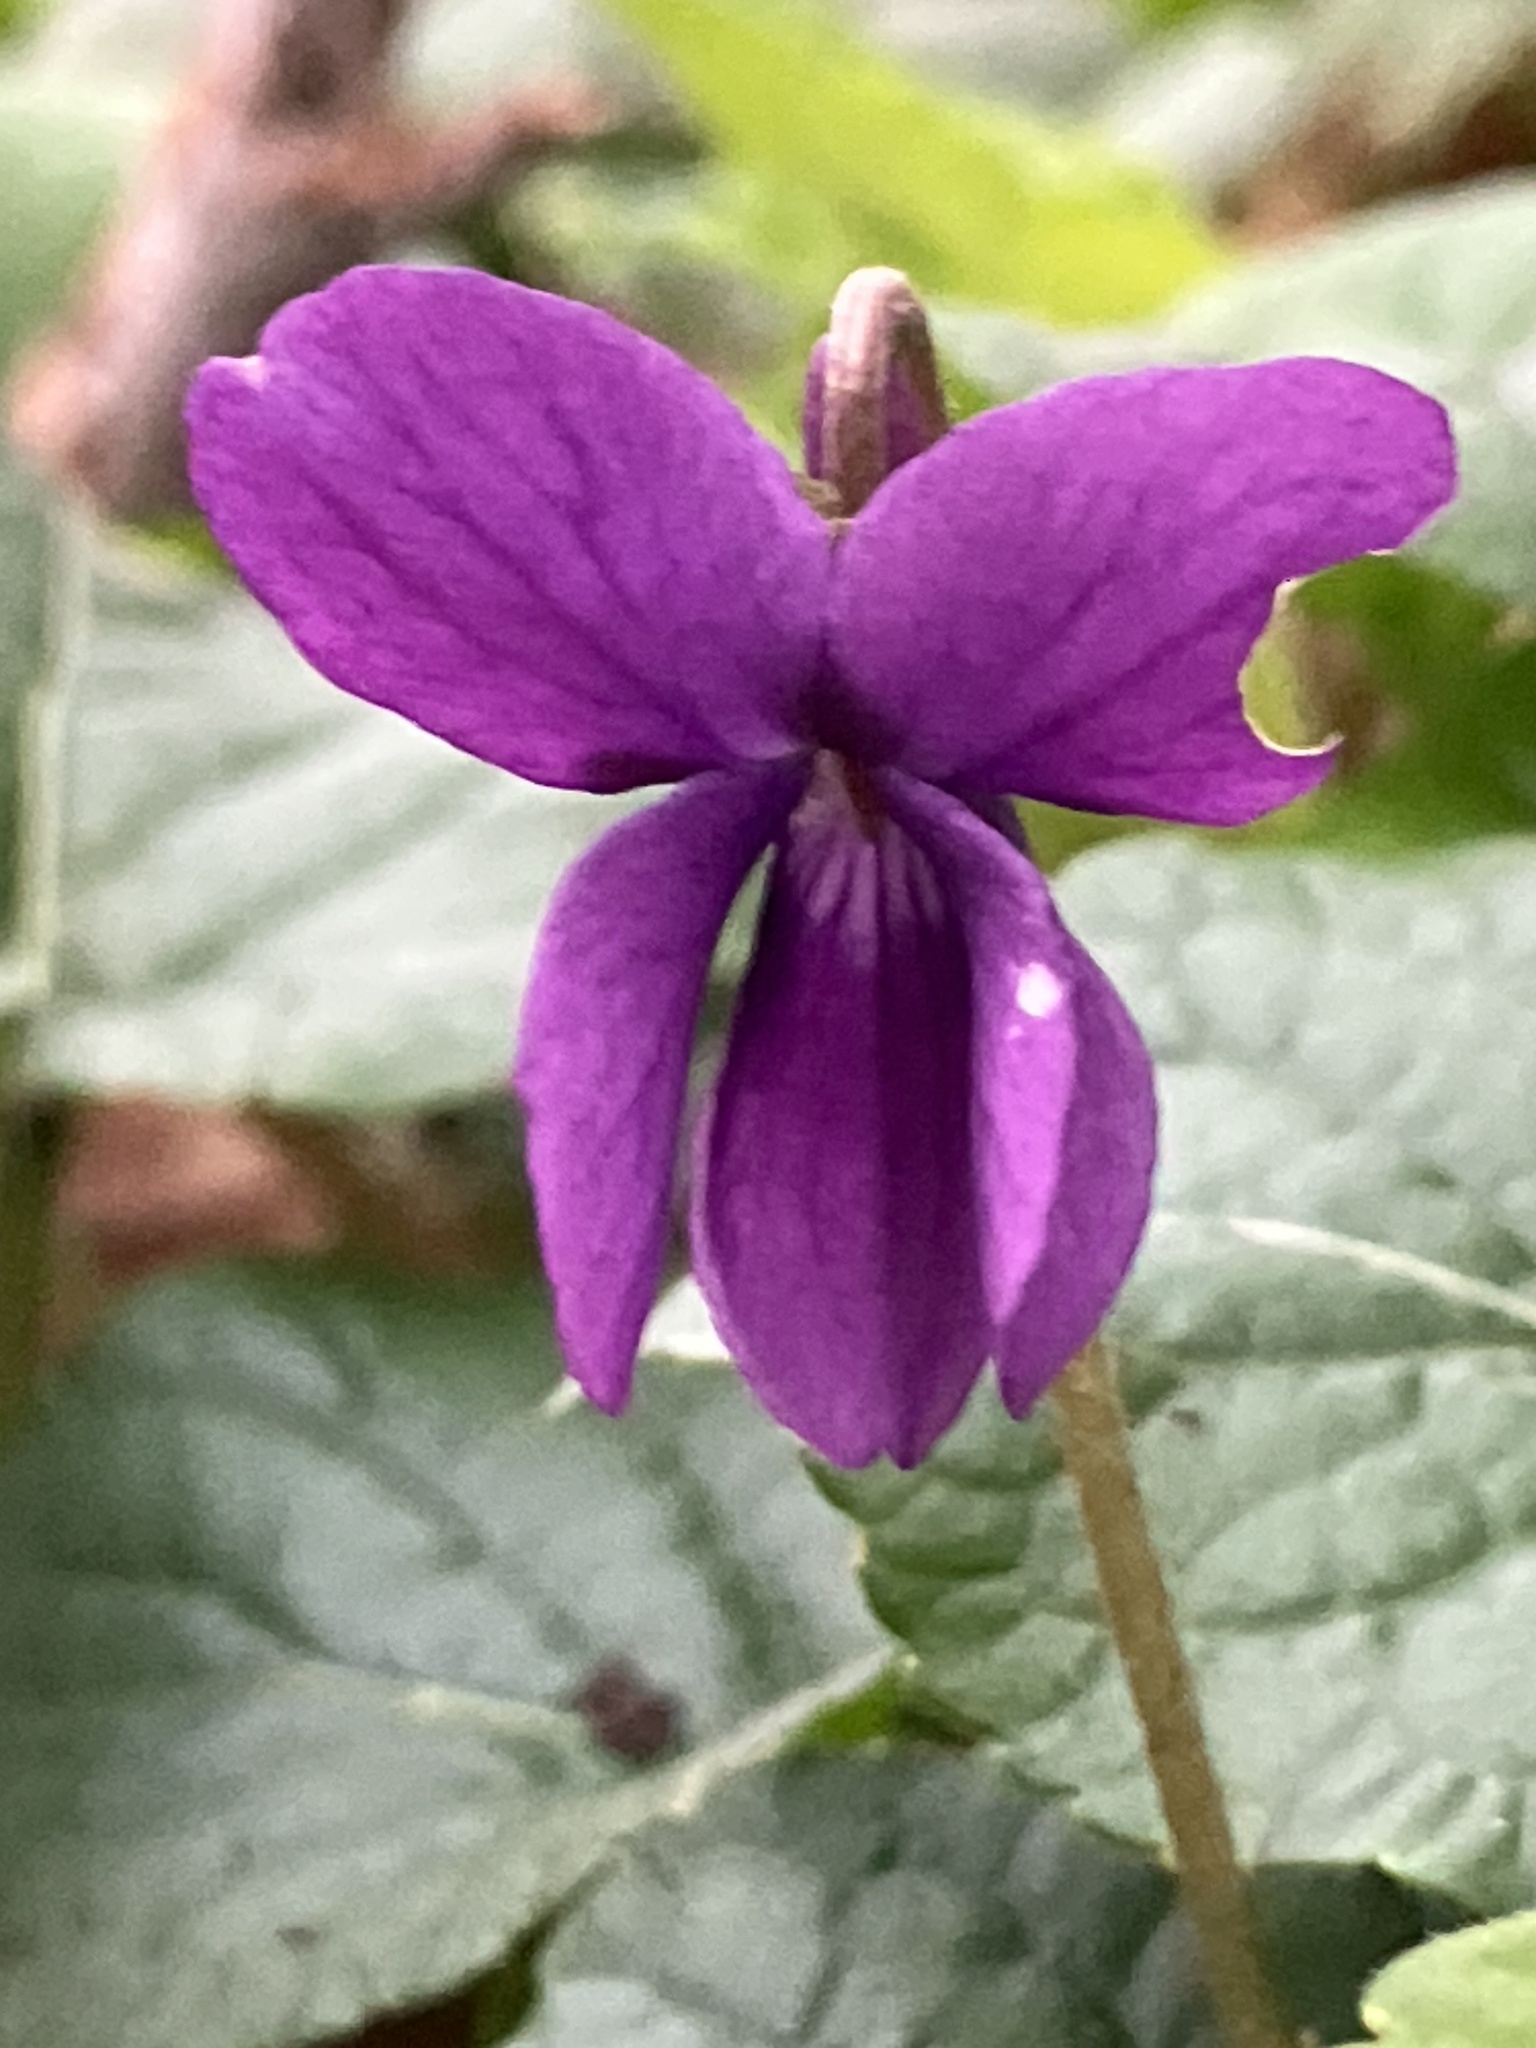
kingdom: Plantae
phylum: Tracheophyta
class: Magnoliopsida
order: Malpighiales
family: Violaceae
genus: Viola
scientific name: Viola odorata
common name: Sweet violet
